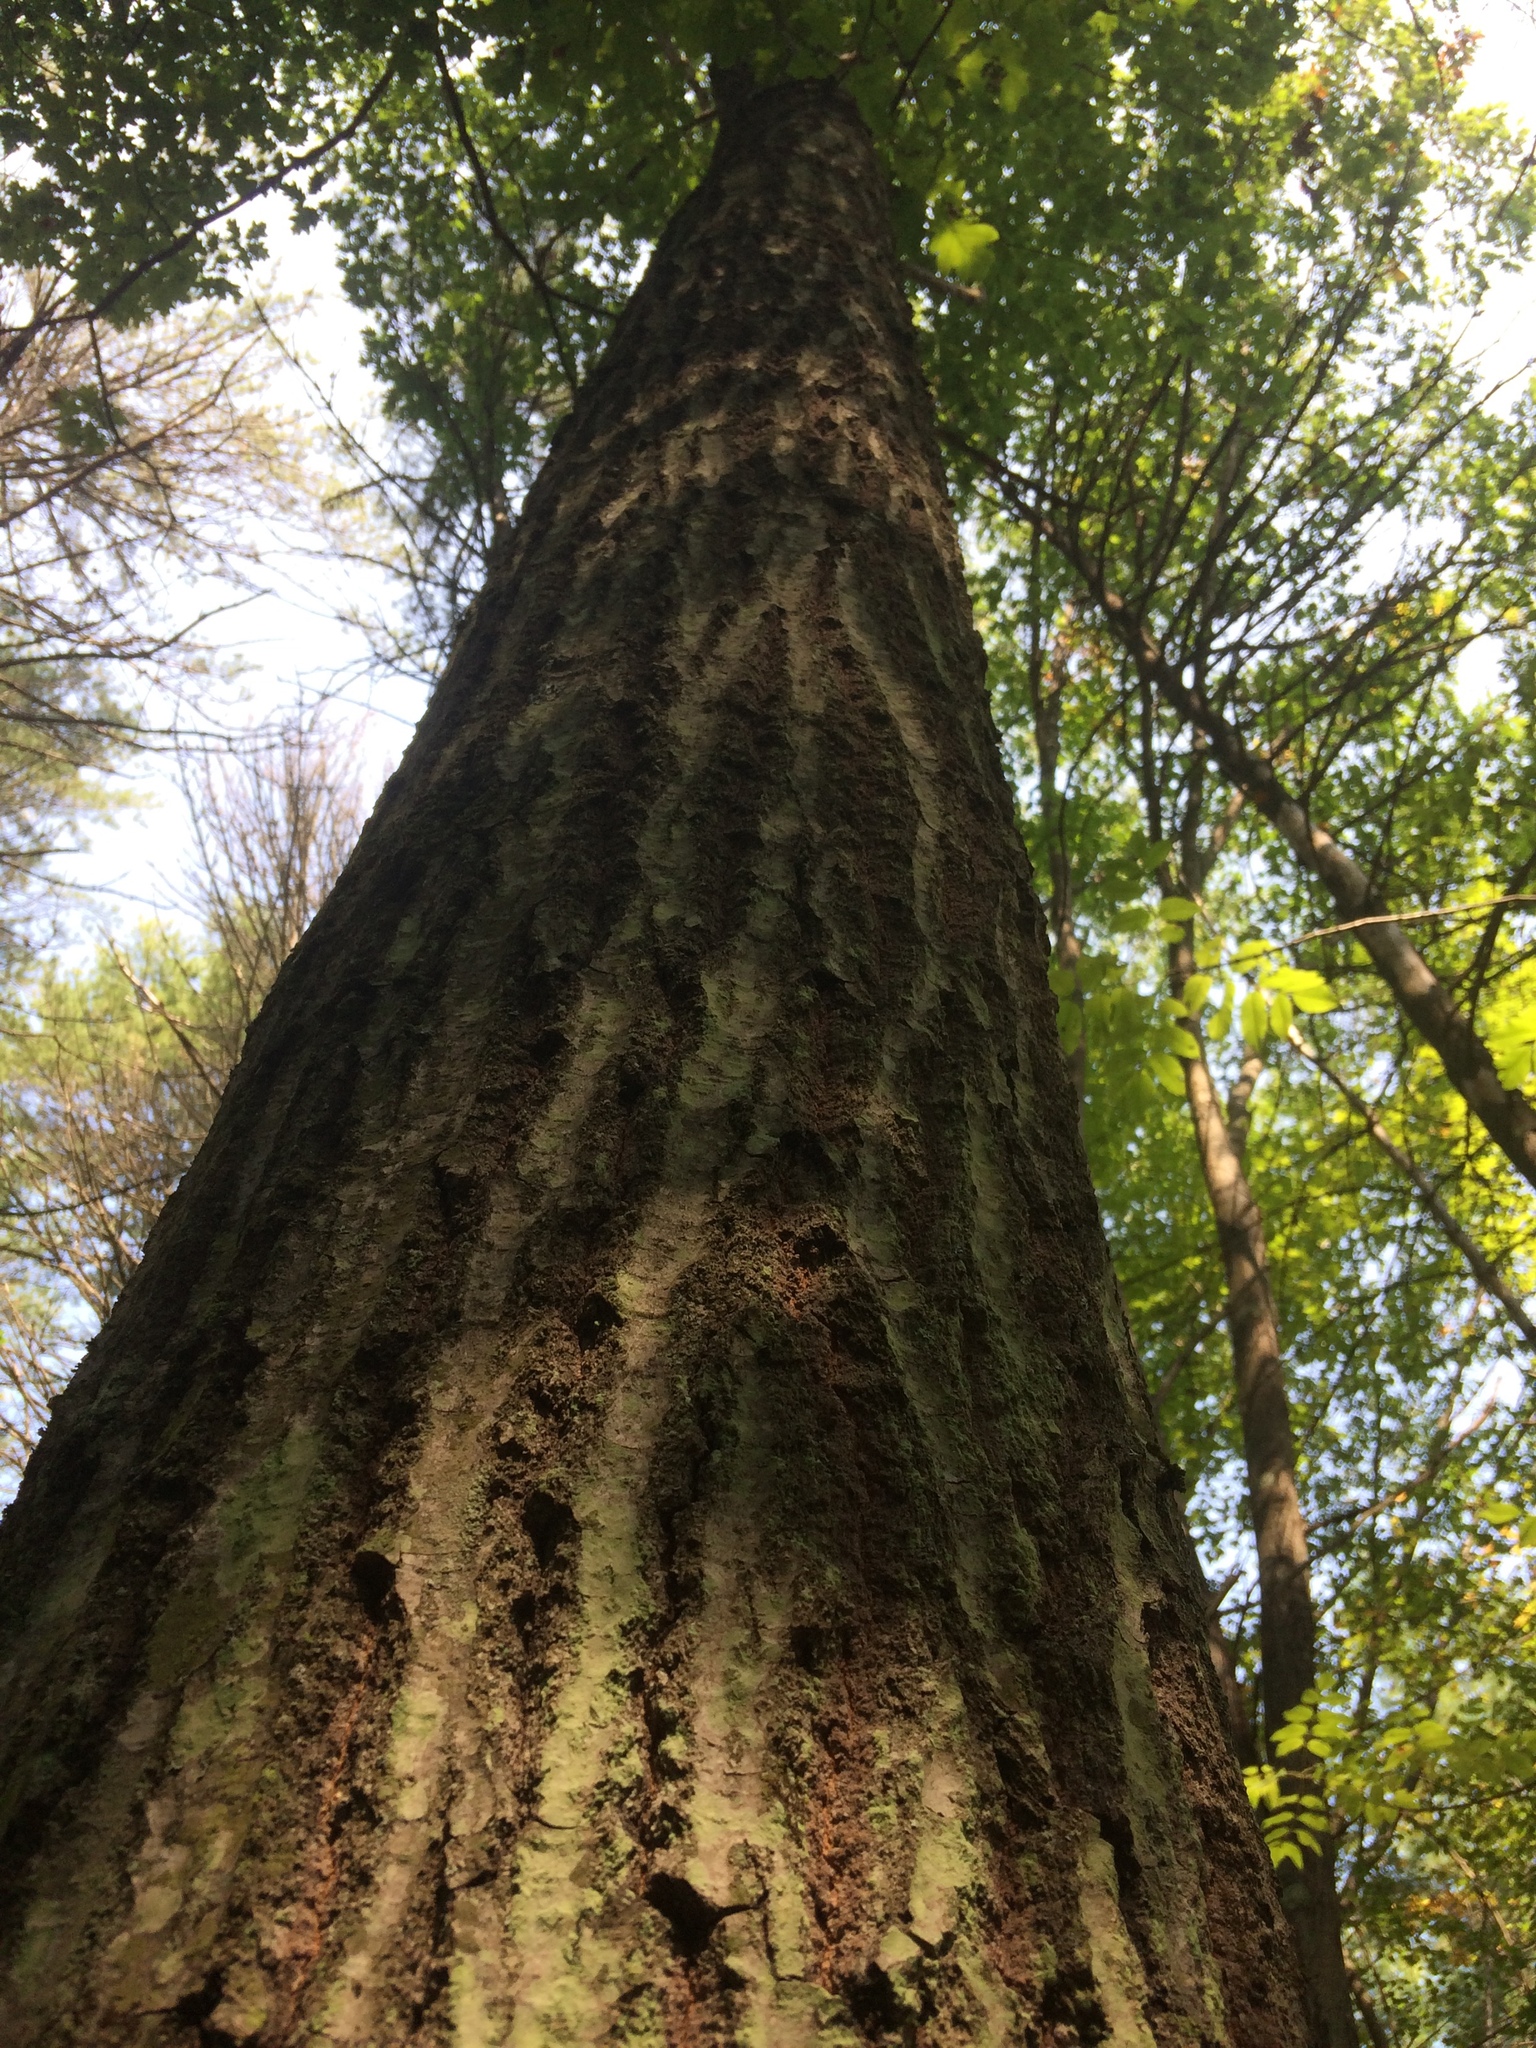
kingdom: Plantae
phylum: Tracheophyta
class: Magnoliopsida
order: Fagales
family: Fagaceae
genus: Quercus
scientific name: Quercus rubra
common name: Red oak
